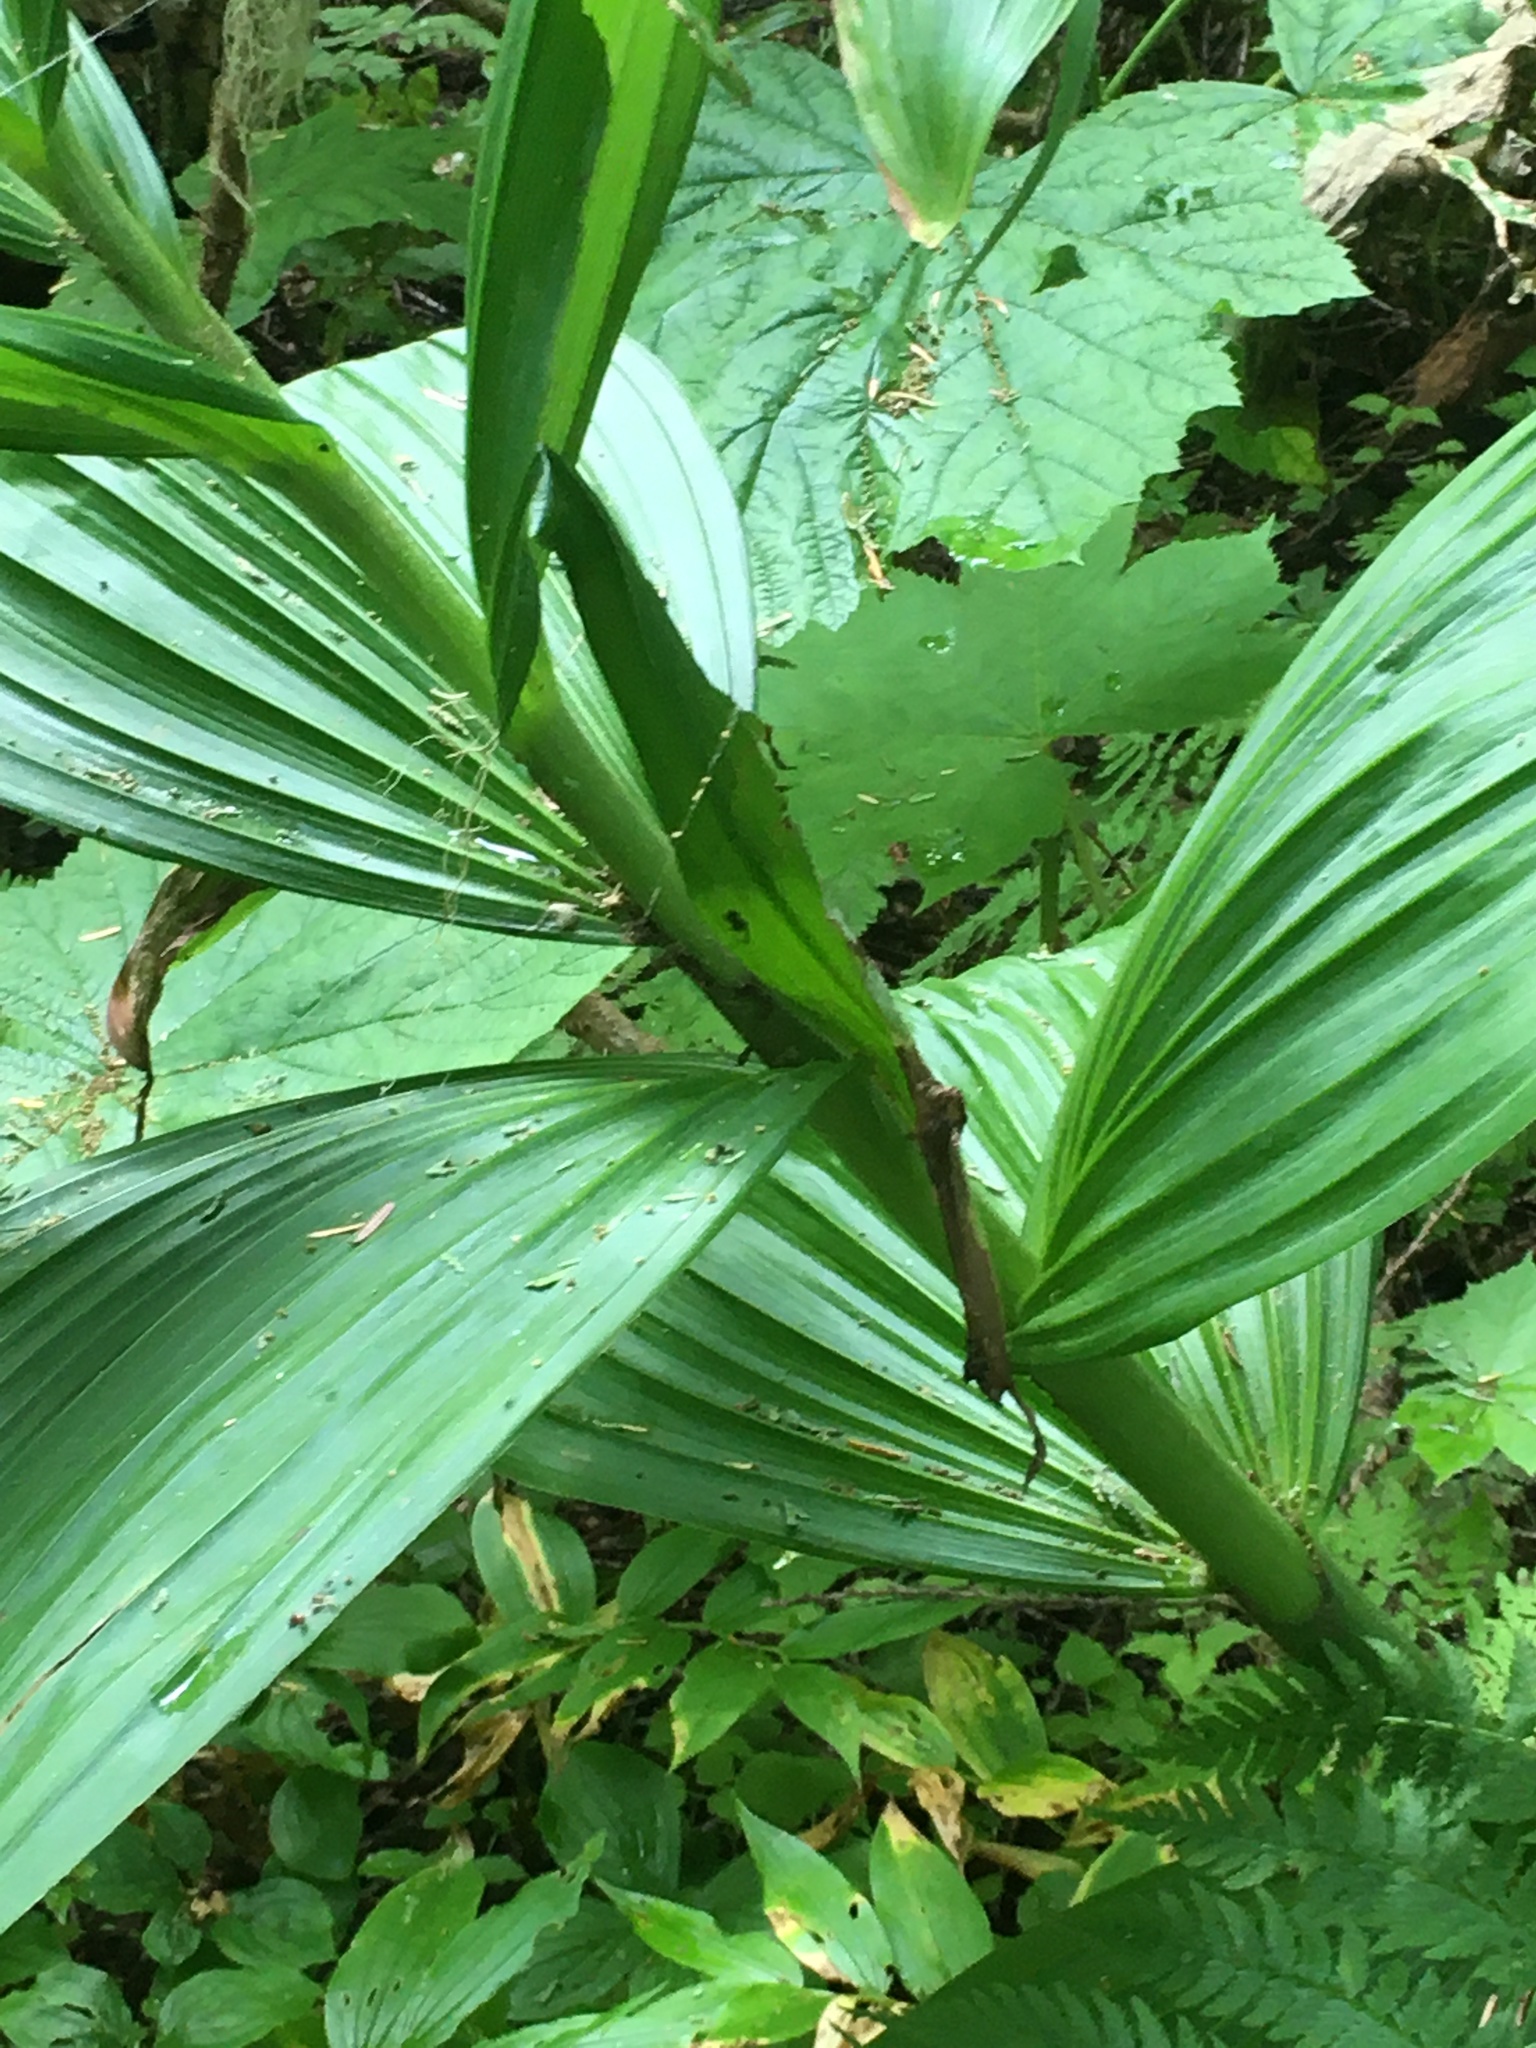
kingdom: Plantae
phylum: Tracheophyta
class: Liliopsida
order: Liliales
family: Melanthiaceae
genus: Veratrum
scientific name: Veratrum viride
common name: American false hellebore
